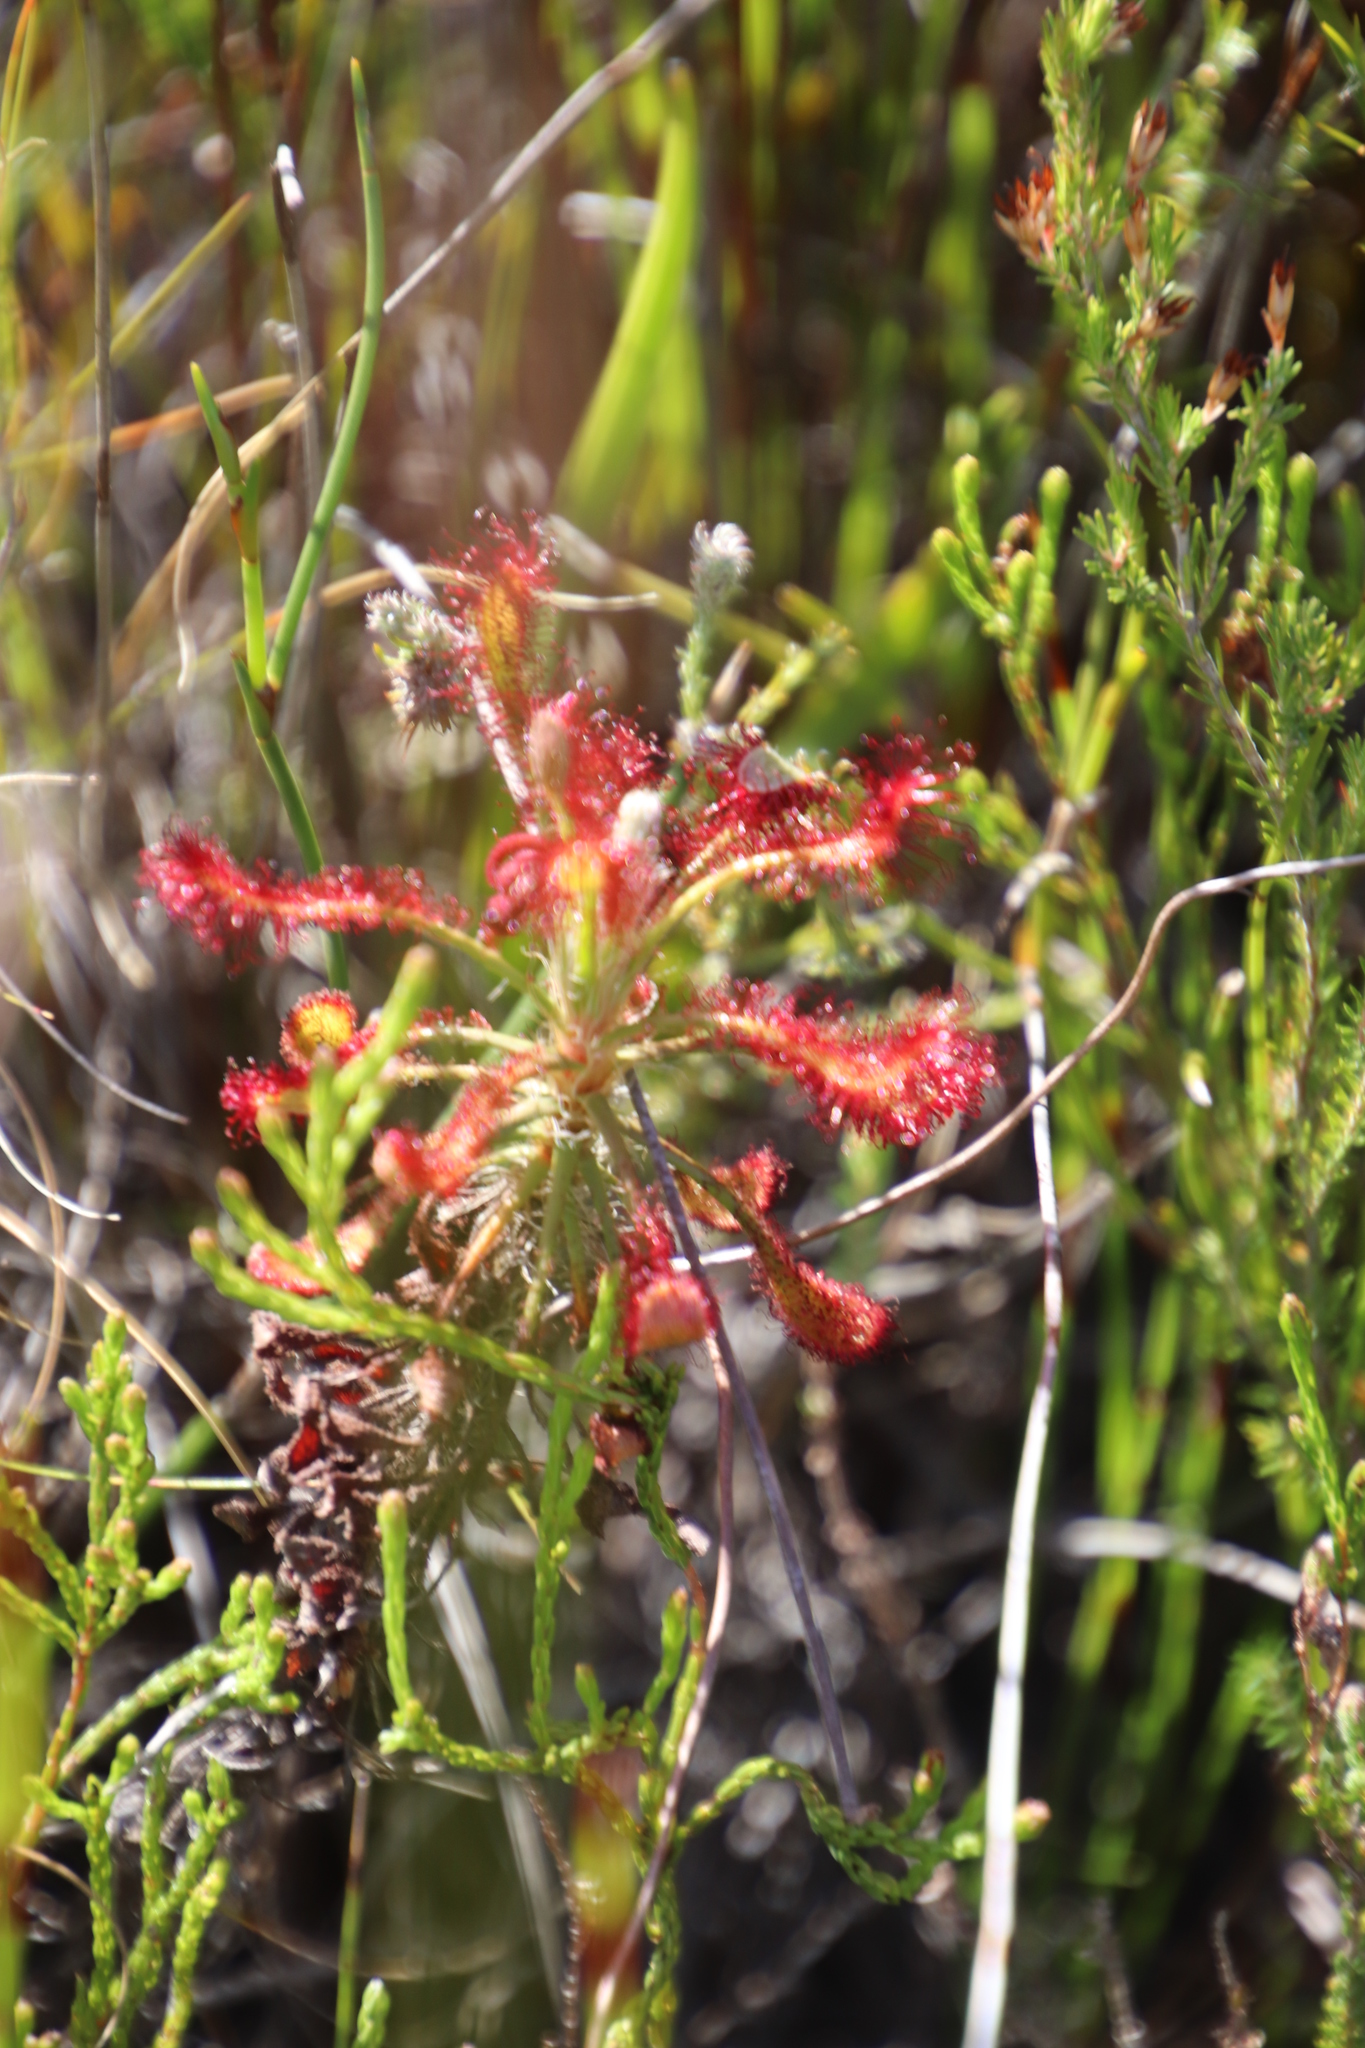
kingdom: Plantae
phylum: Tracheophyta
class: Magnoliopsida
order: Caryophyllales
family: Droseraceae
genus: Drosera
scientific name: Drosera glabripes
